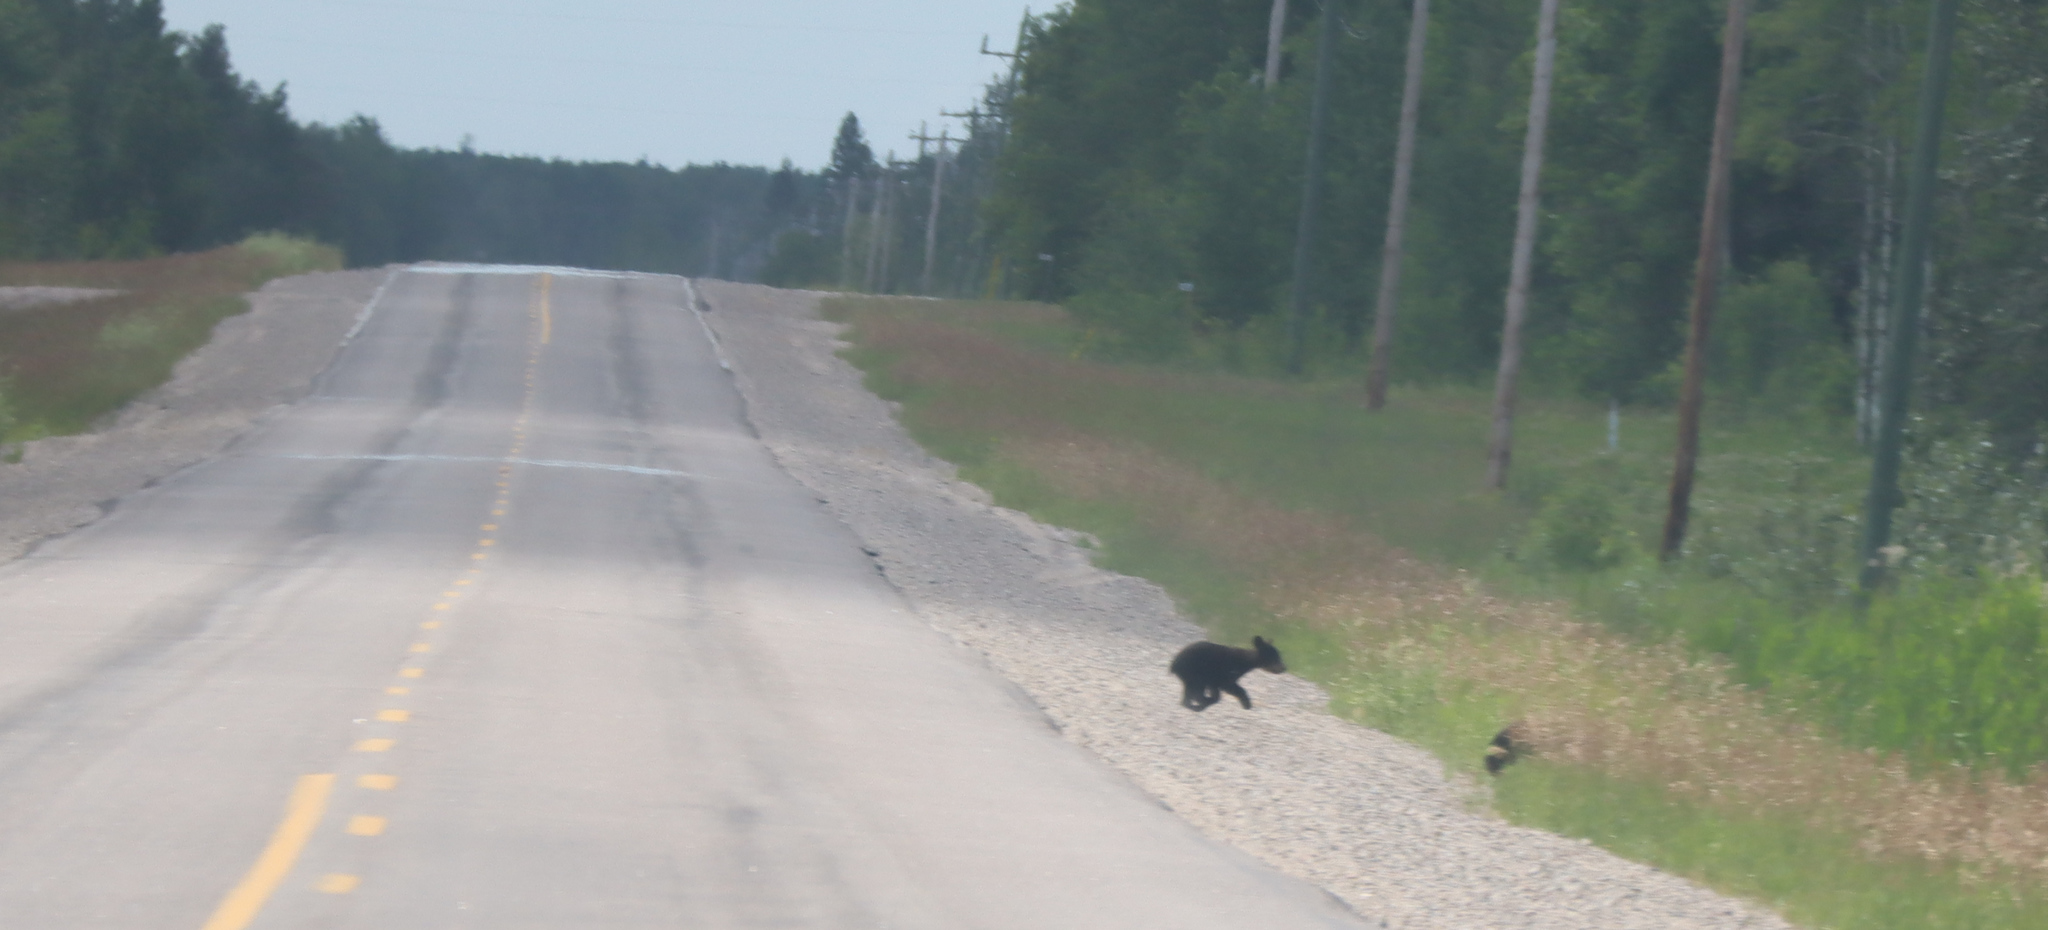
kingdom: Animalia
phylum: Chordata
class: Mammalia
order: Carnivora
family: Ursidae
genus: Ursus
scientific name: Ursus americanus
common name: American black bear
